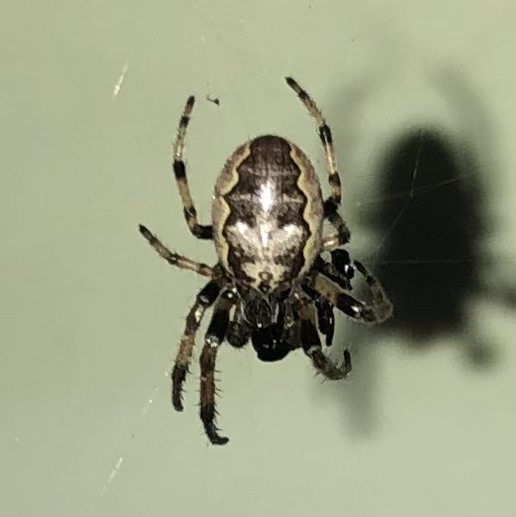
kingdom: Animalia
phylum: Arthropoda
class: Arachnida
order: Araneae
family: Araneidae
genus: Larinioides
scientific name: Larinioides cornutus
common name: Furrow orbweaver
